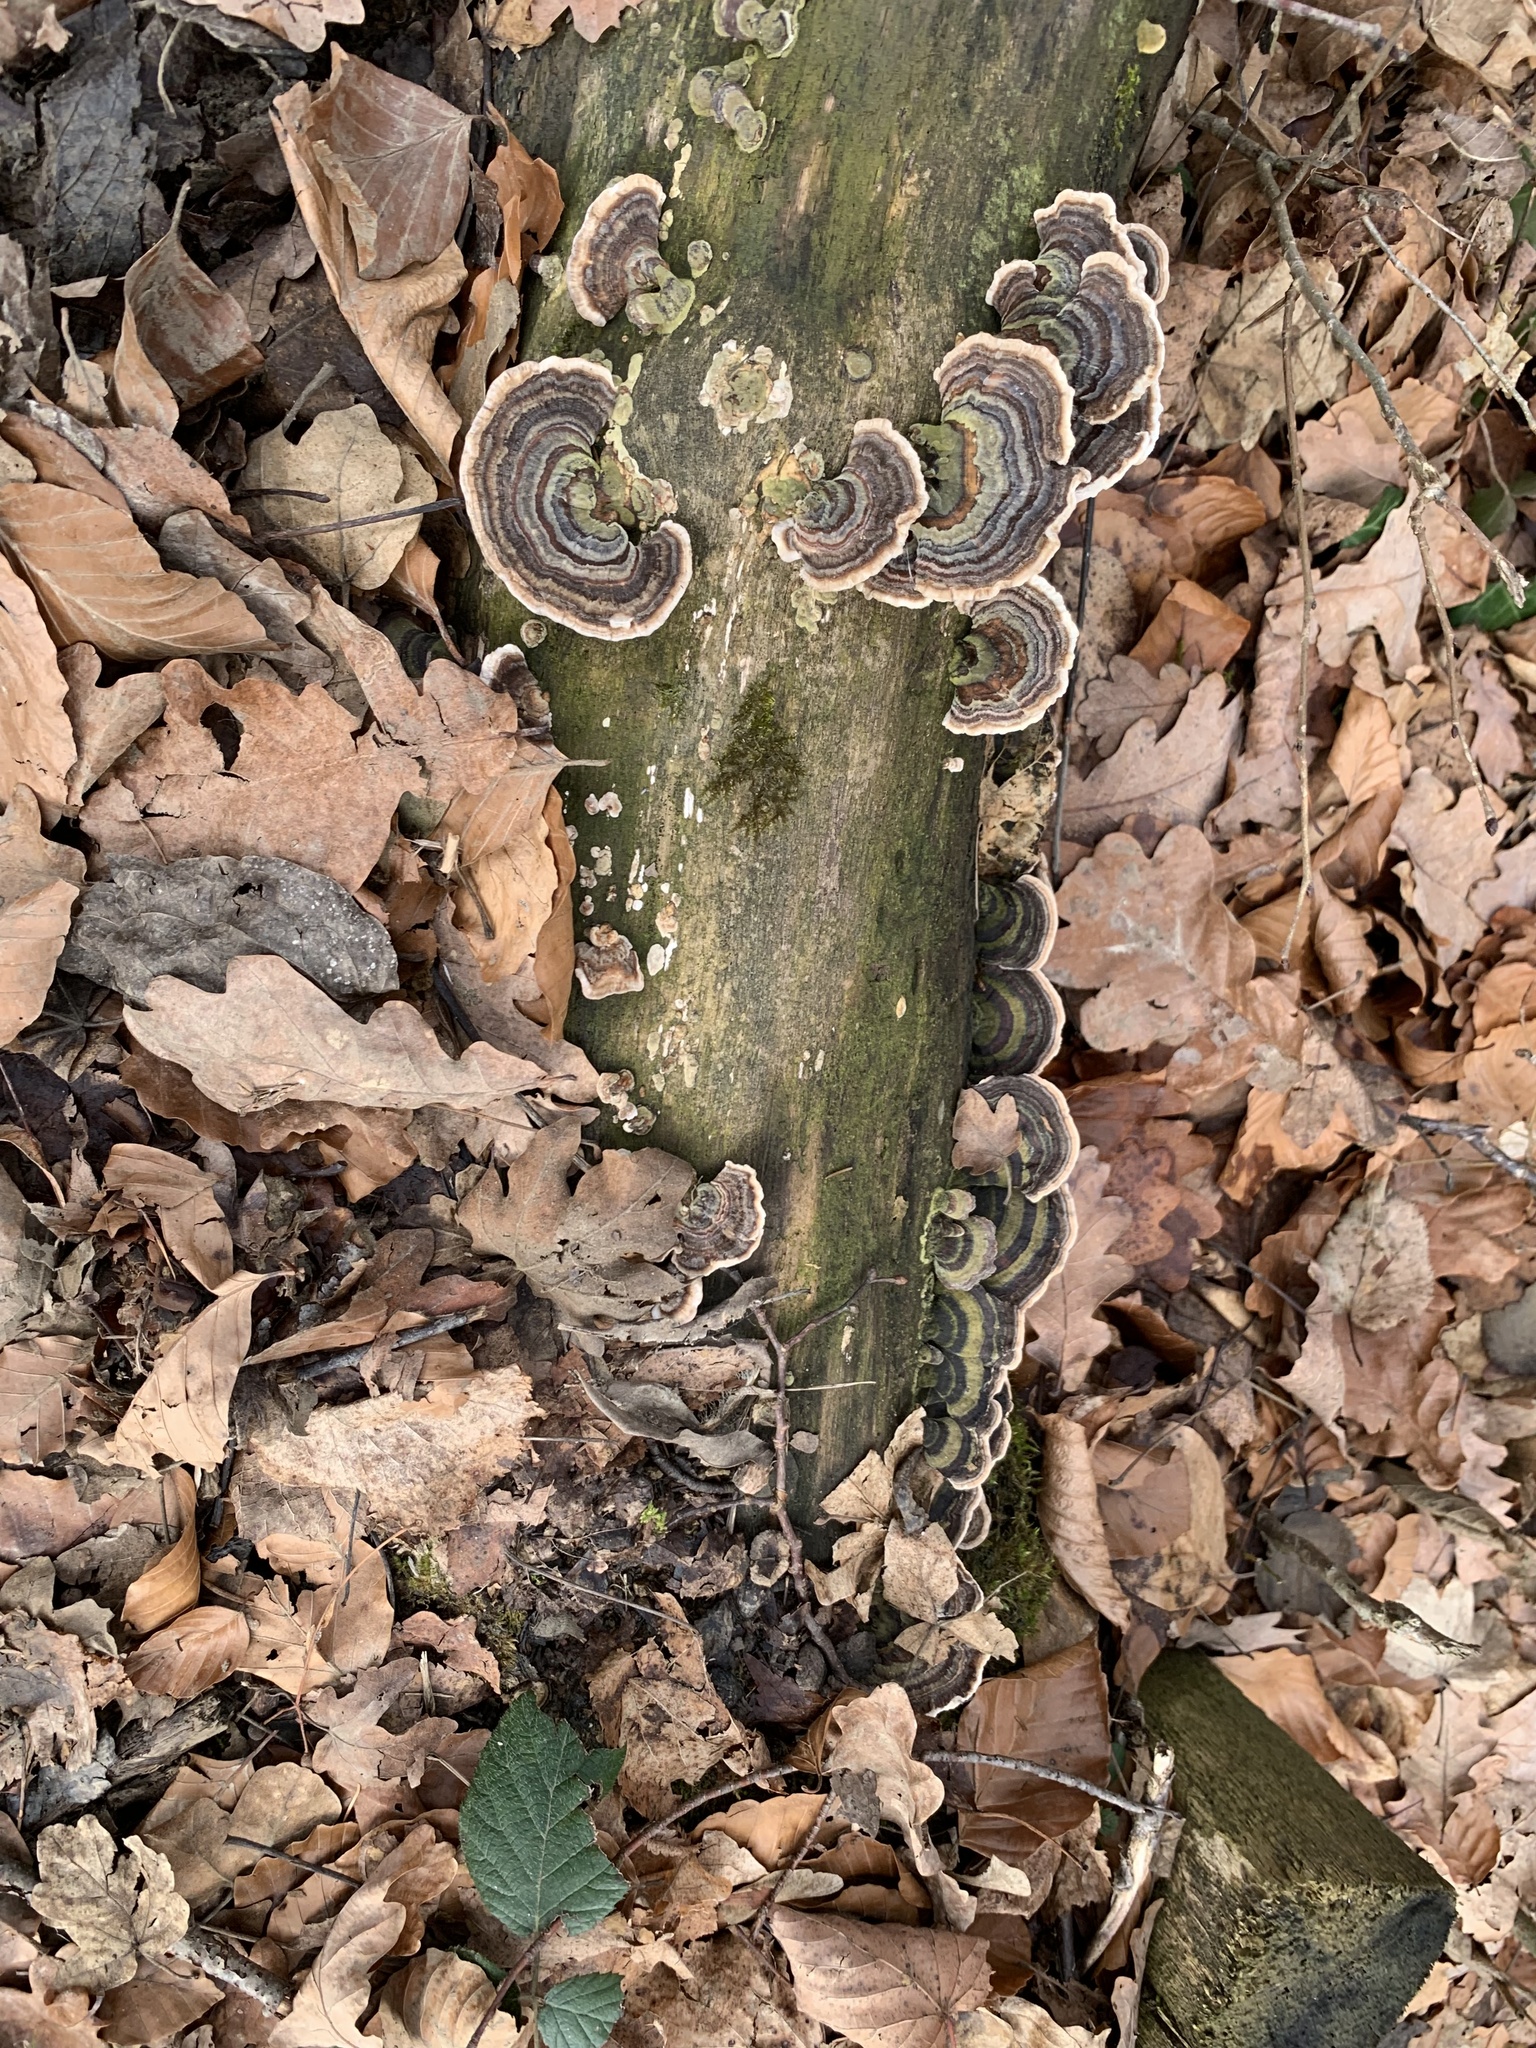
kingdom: Fungi
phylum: Basidiomycota
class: Agaricomycetes
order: Polyporales
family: Polyporaceae
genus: Trametes
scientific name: Trametes versicolor
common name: Turkeytail
